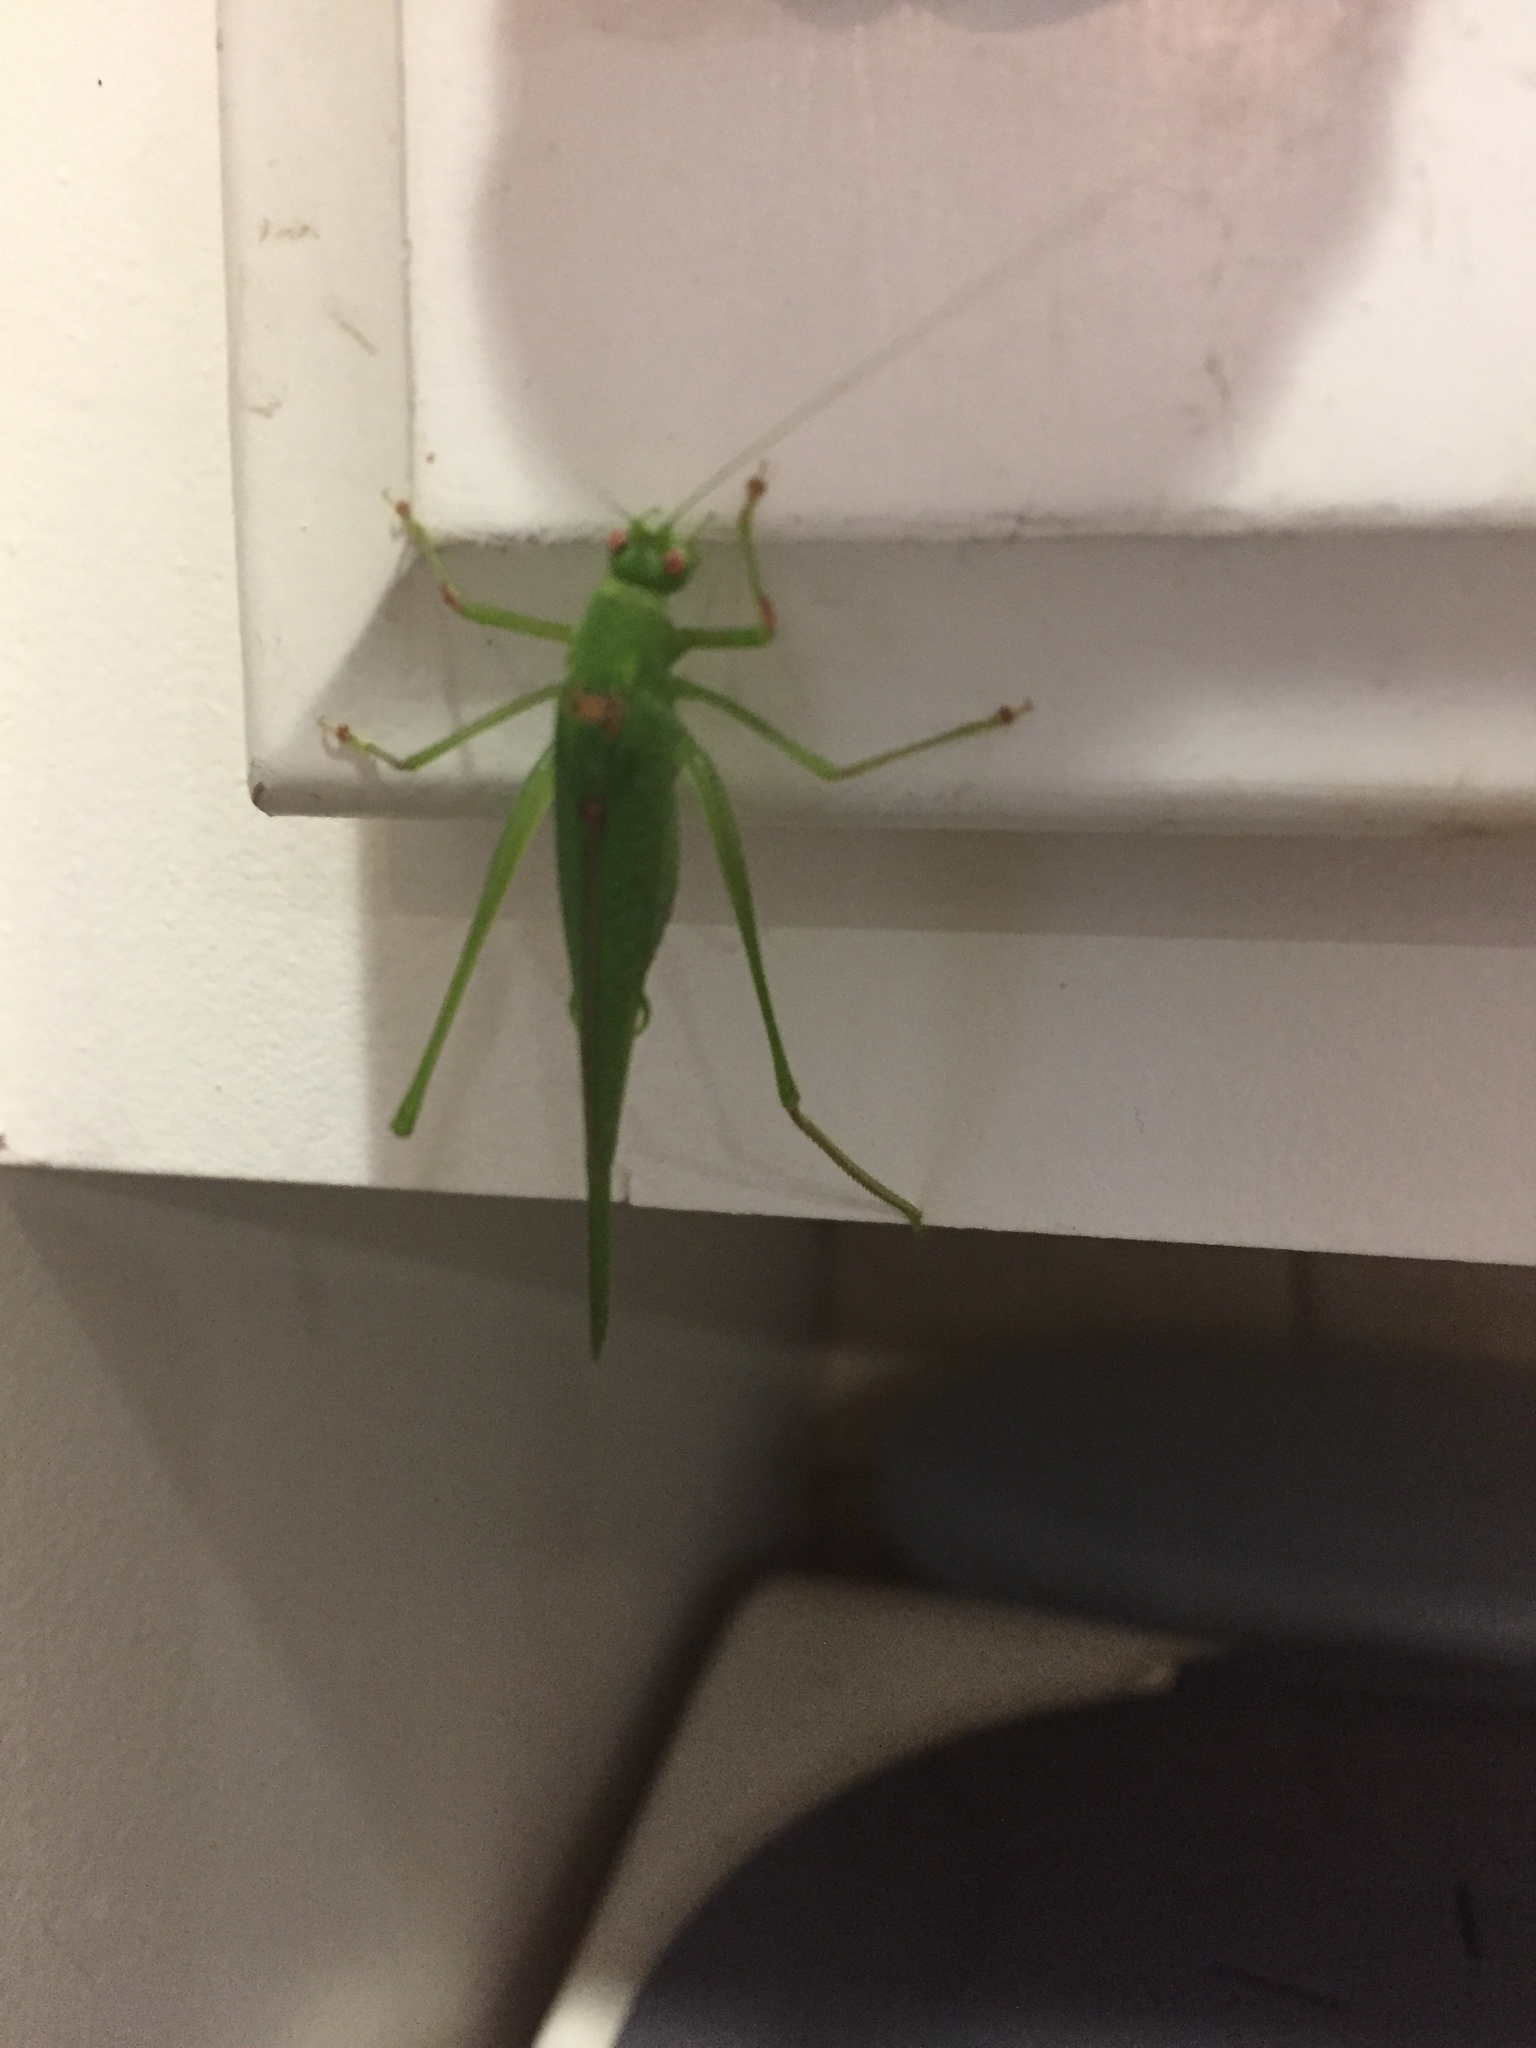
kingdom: Animalia
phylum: Arthropoda
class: Insecta
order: Orthoptera
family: Tettigoniidae
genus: Phaneroptera
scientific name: Phaneroptera nana
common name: Southern sickle bush-cricket
